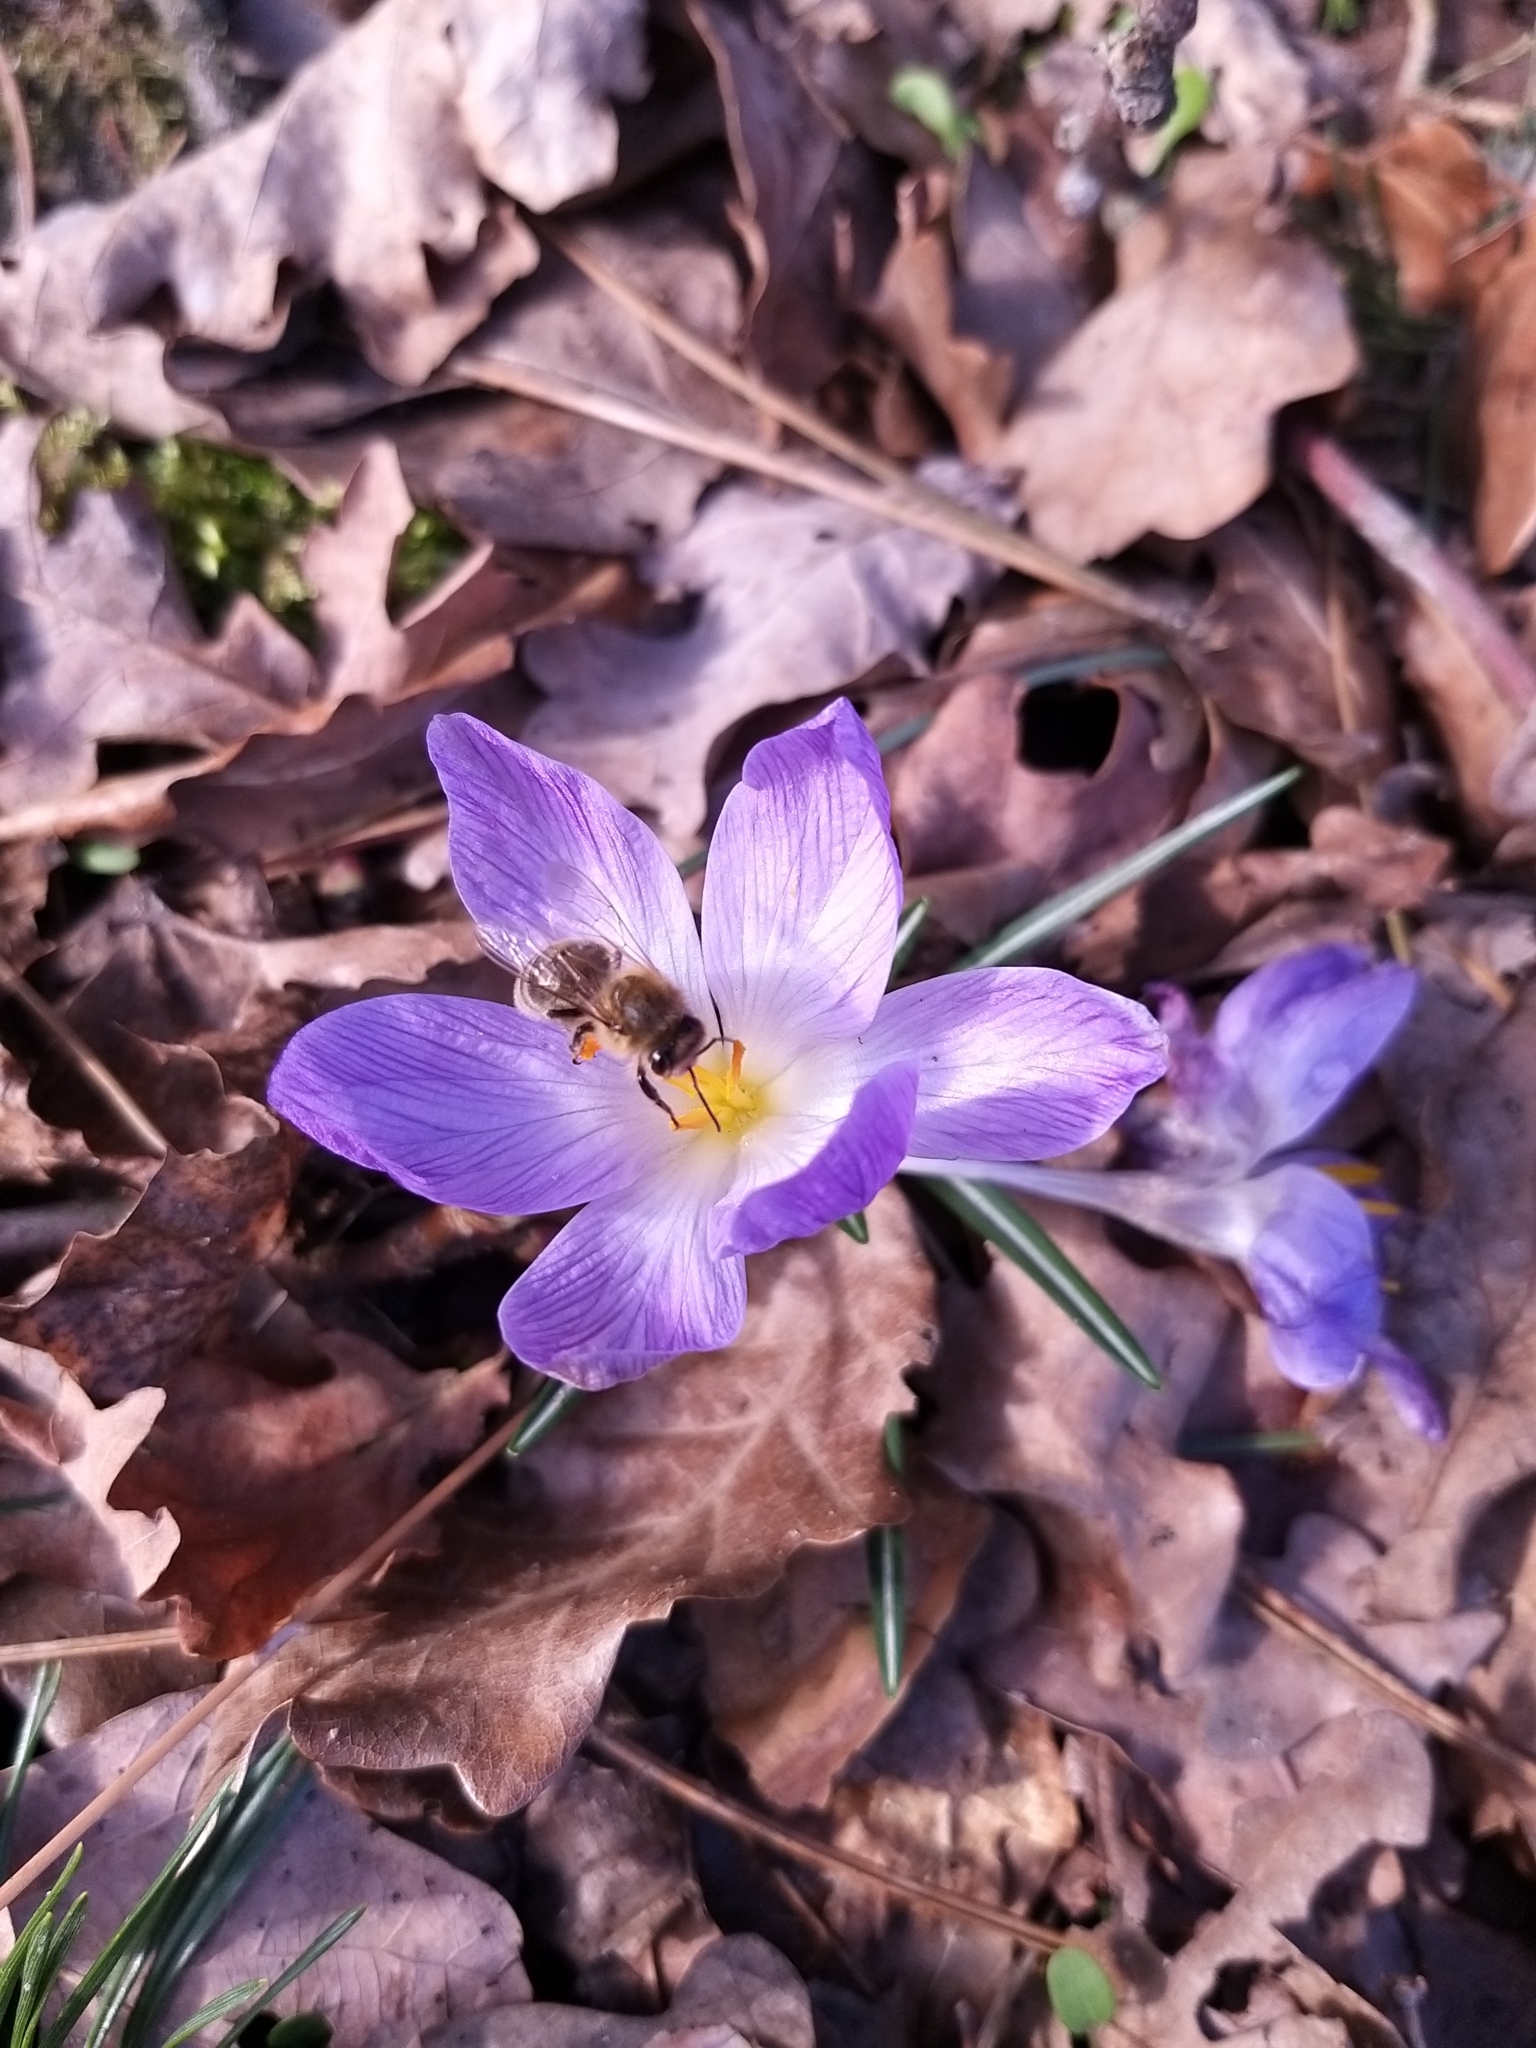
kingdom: Animalia
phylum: Arthropoda
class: Insecta
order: Hymenoptera
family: Apidae
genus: Apis
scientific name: Apis mellifera
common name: Honey bee
